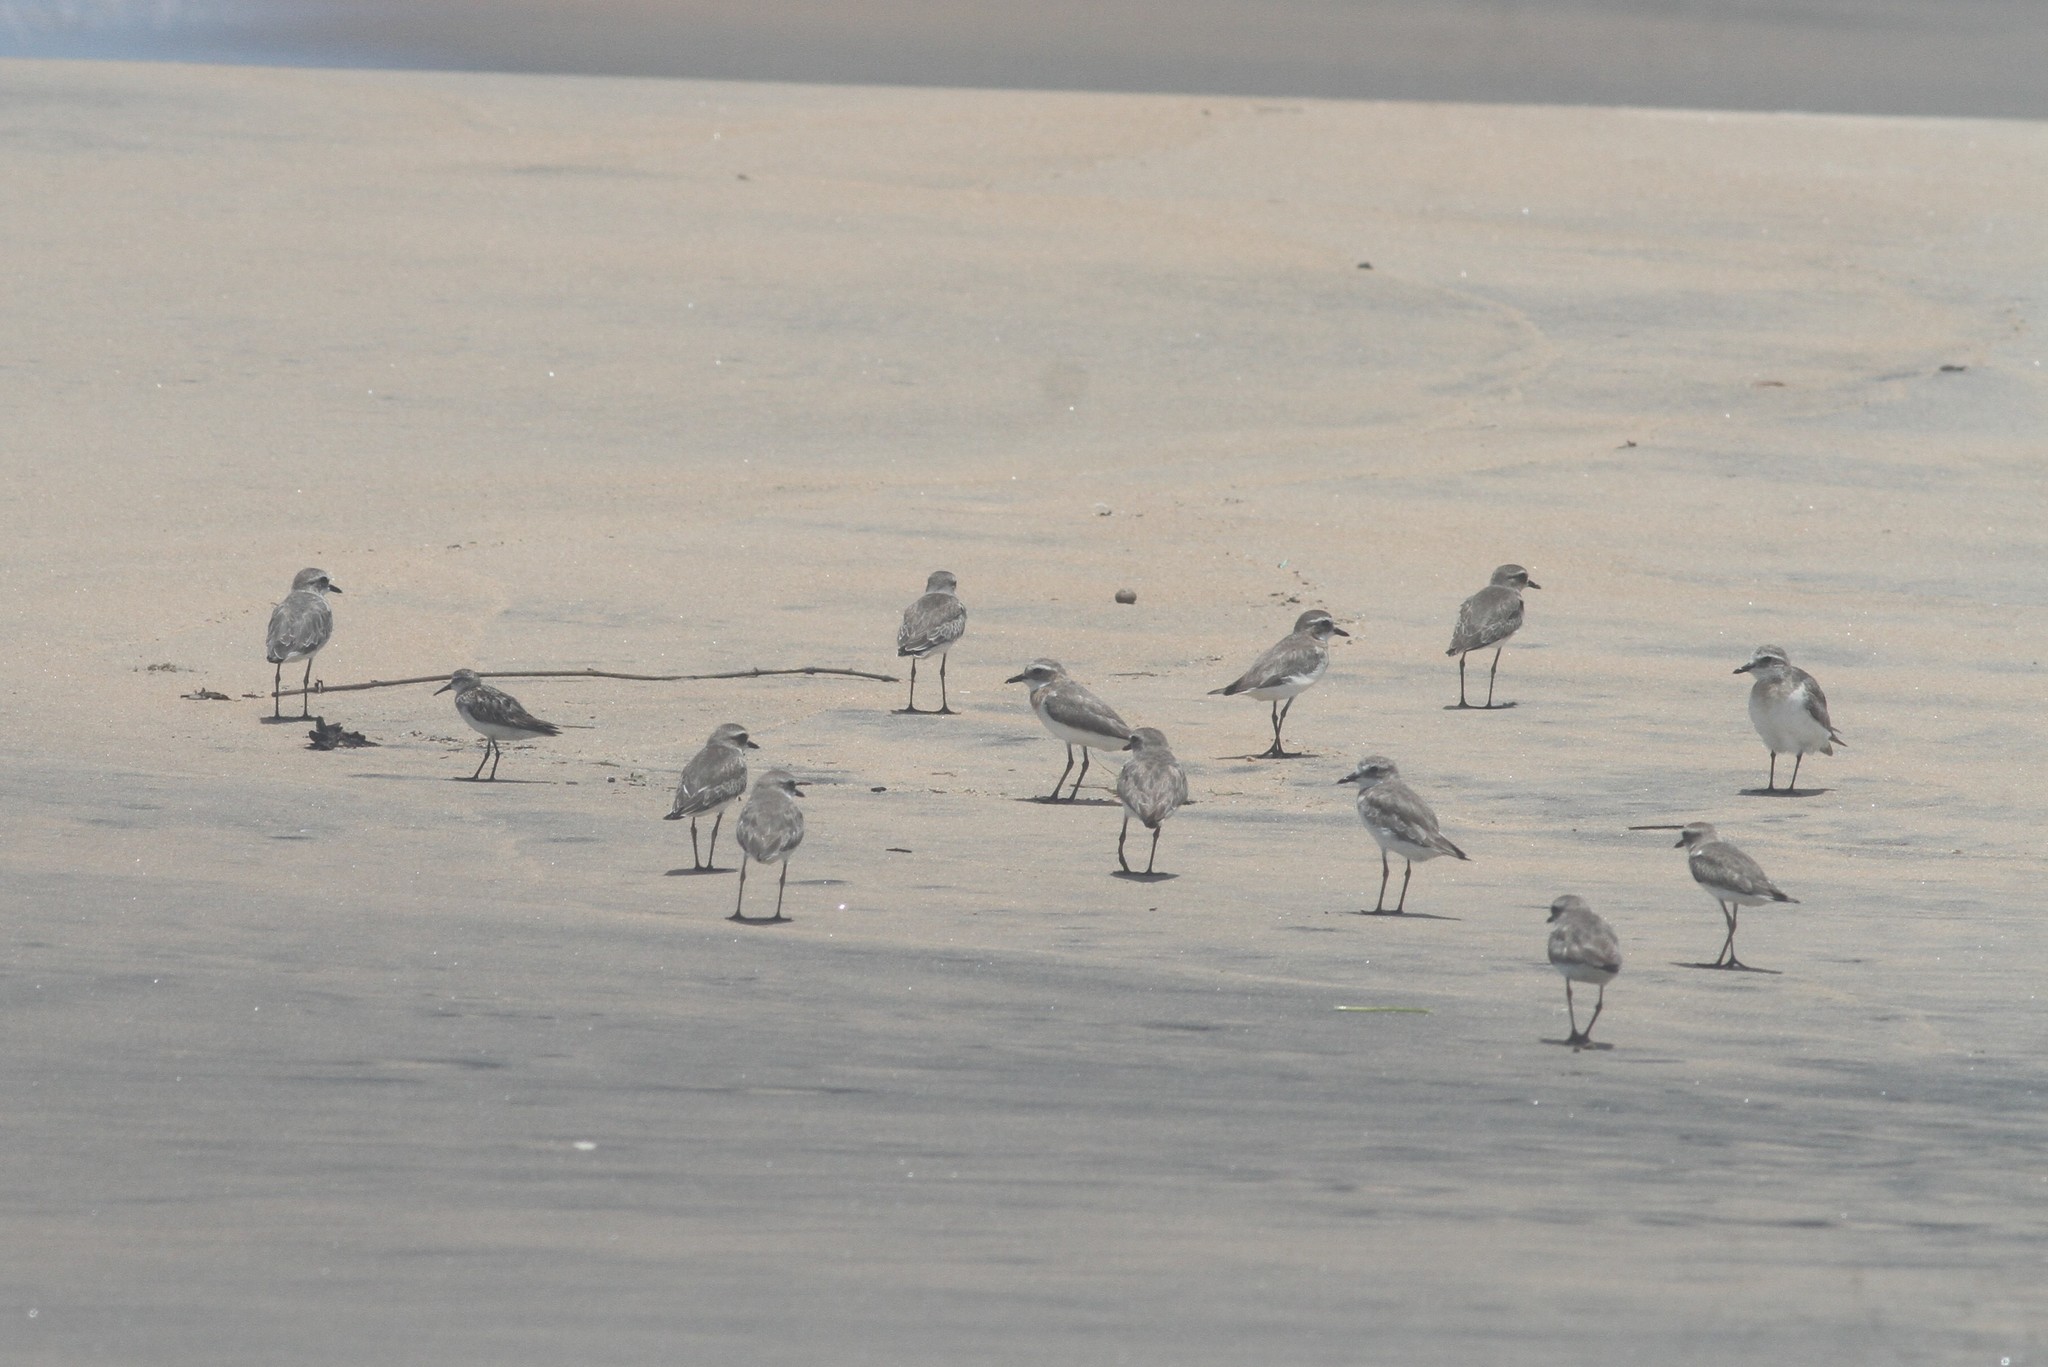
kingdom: Animalia
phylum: Chordata
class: Aves
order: Charadriiformes
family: Charadriidae
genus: Anarhynchus
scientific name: Anarhynchus
